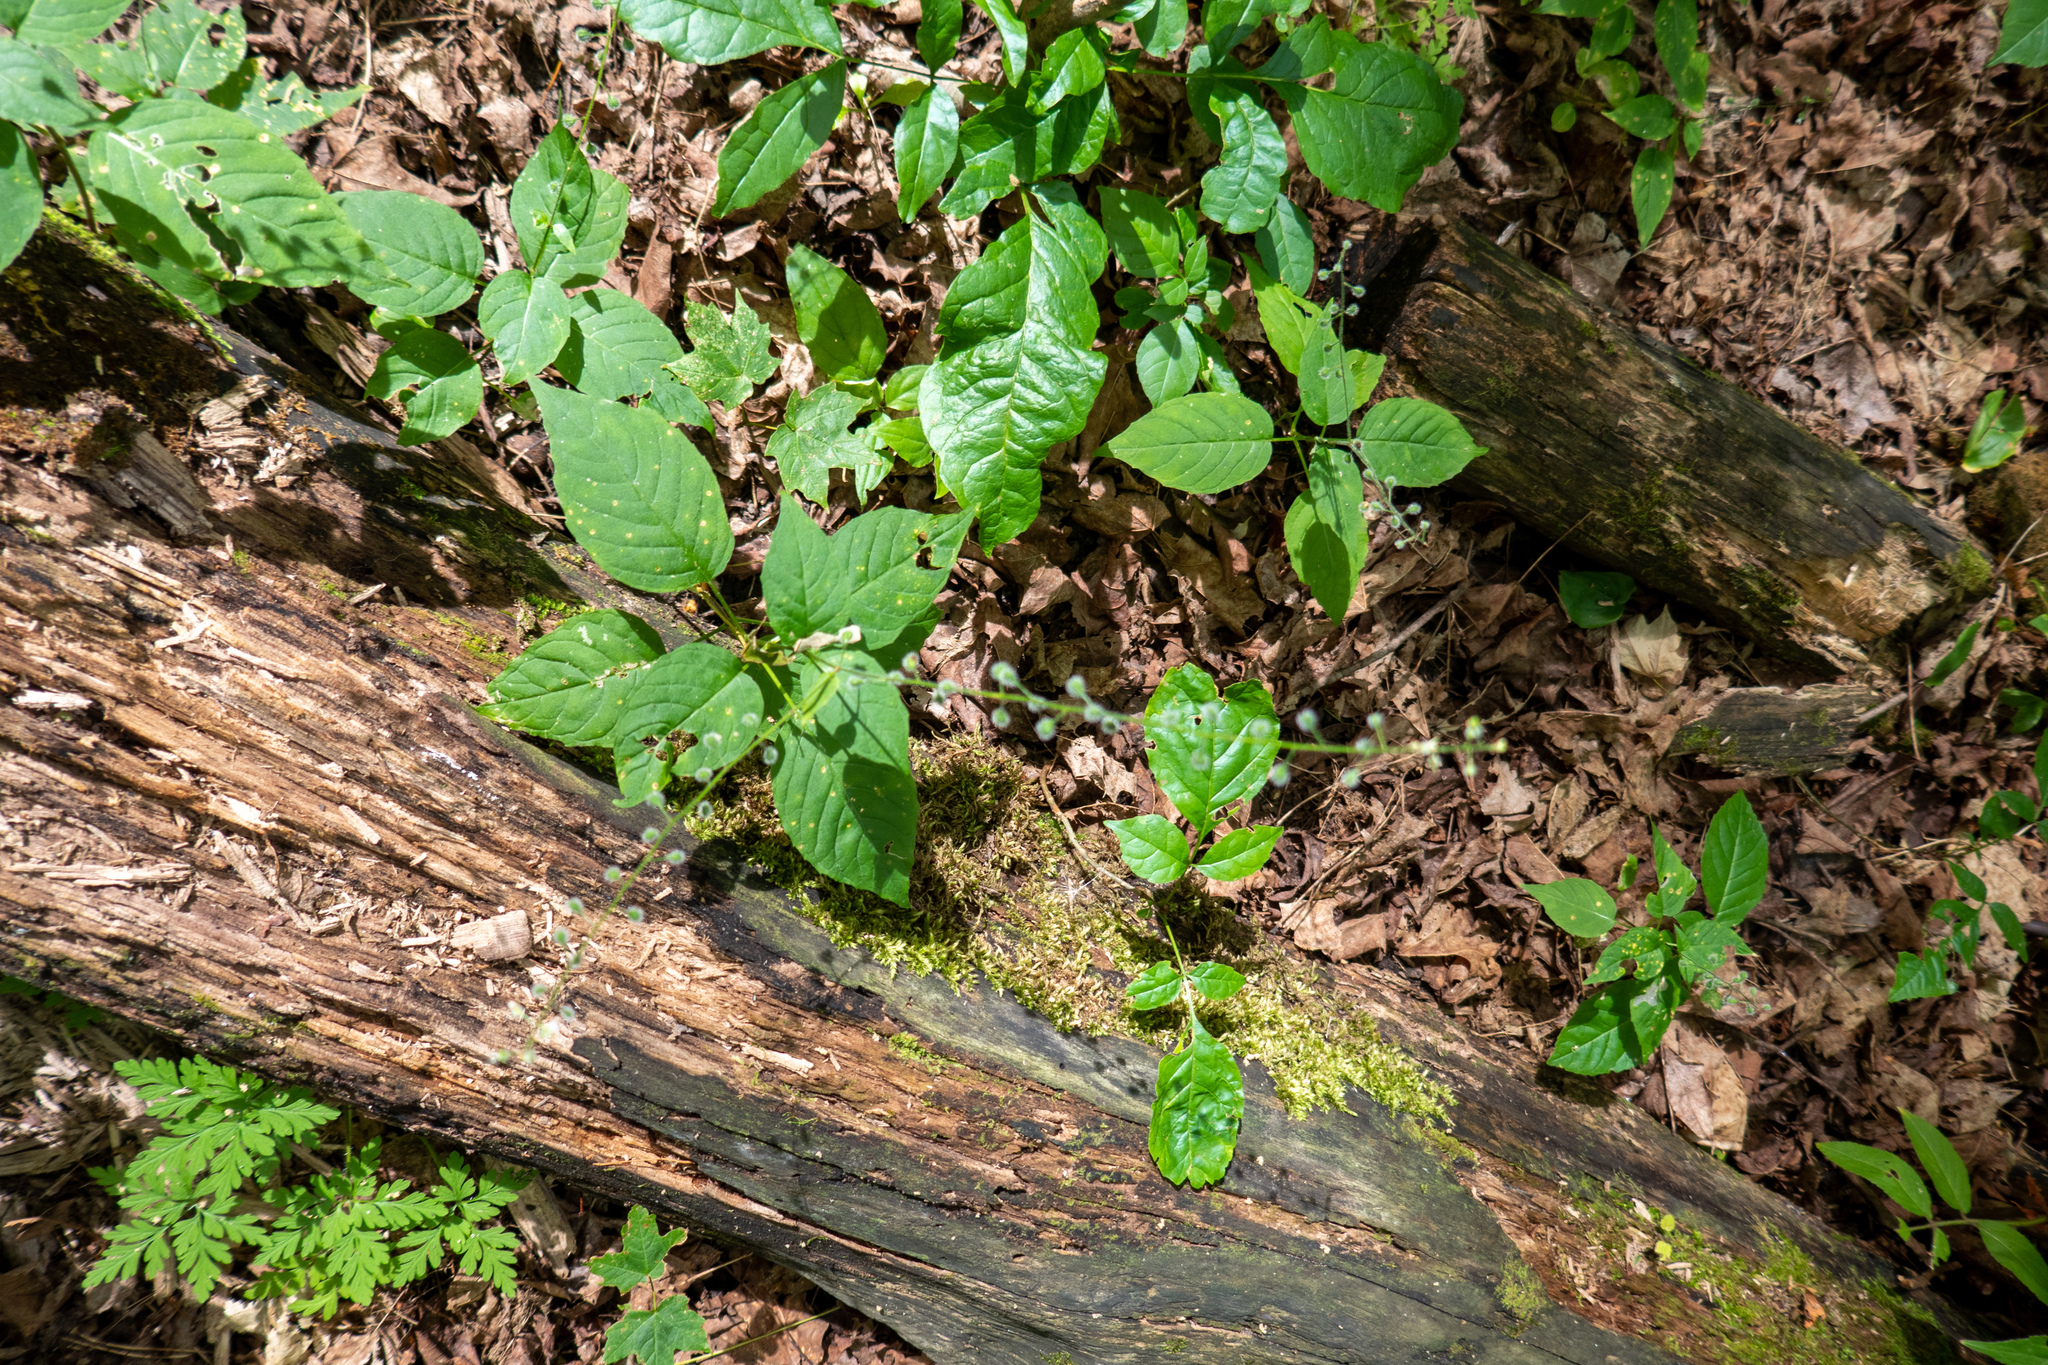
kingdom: Plantae
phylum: Tracheophyta
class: Magnoliopsida
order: Myrtales
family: Onagraceae
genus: Circaea
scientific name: Circaea canadensis
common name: Broad-leaved enchanter's nightshade
